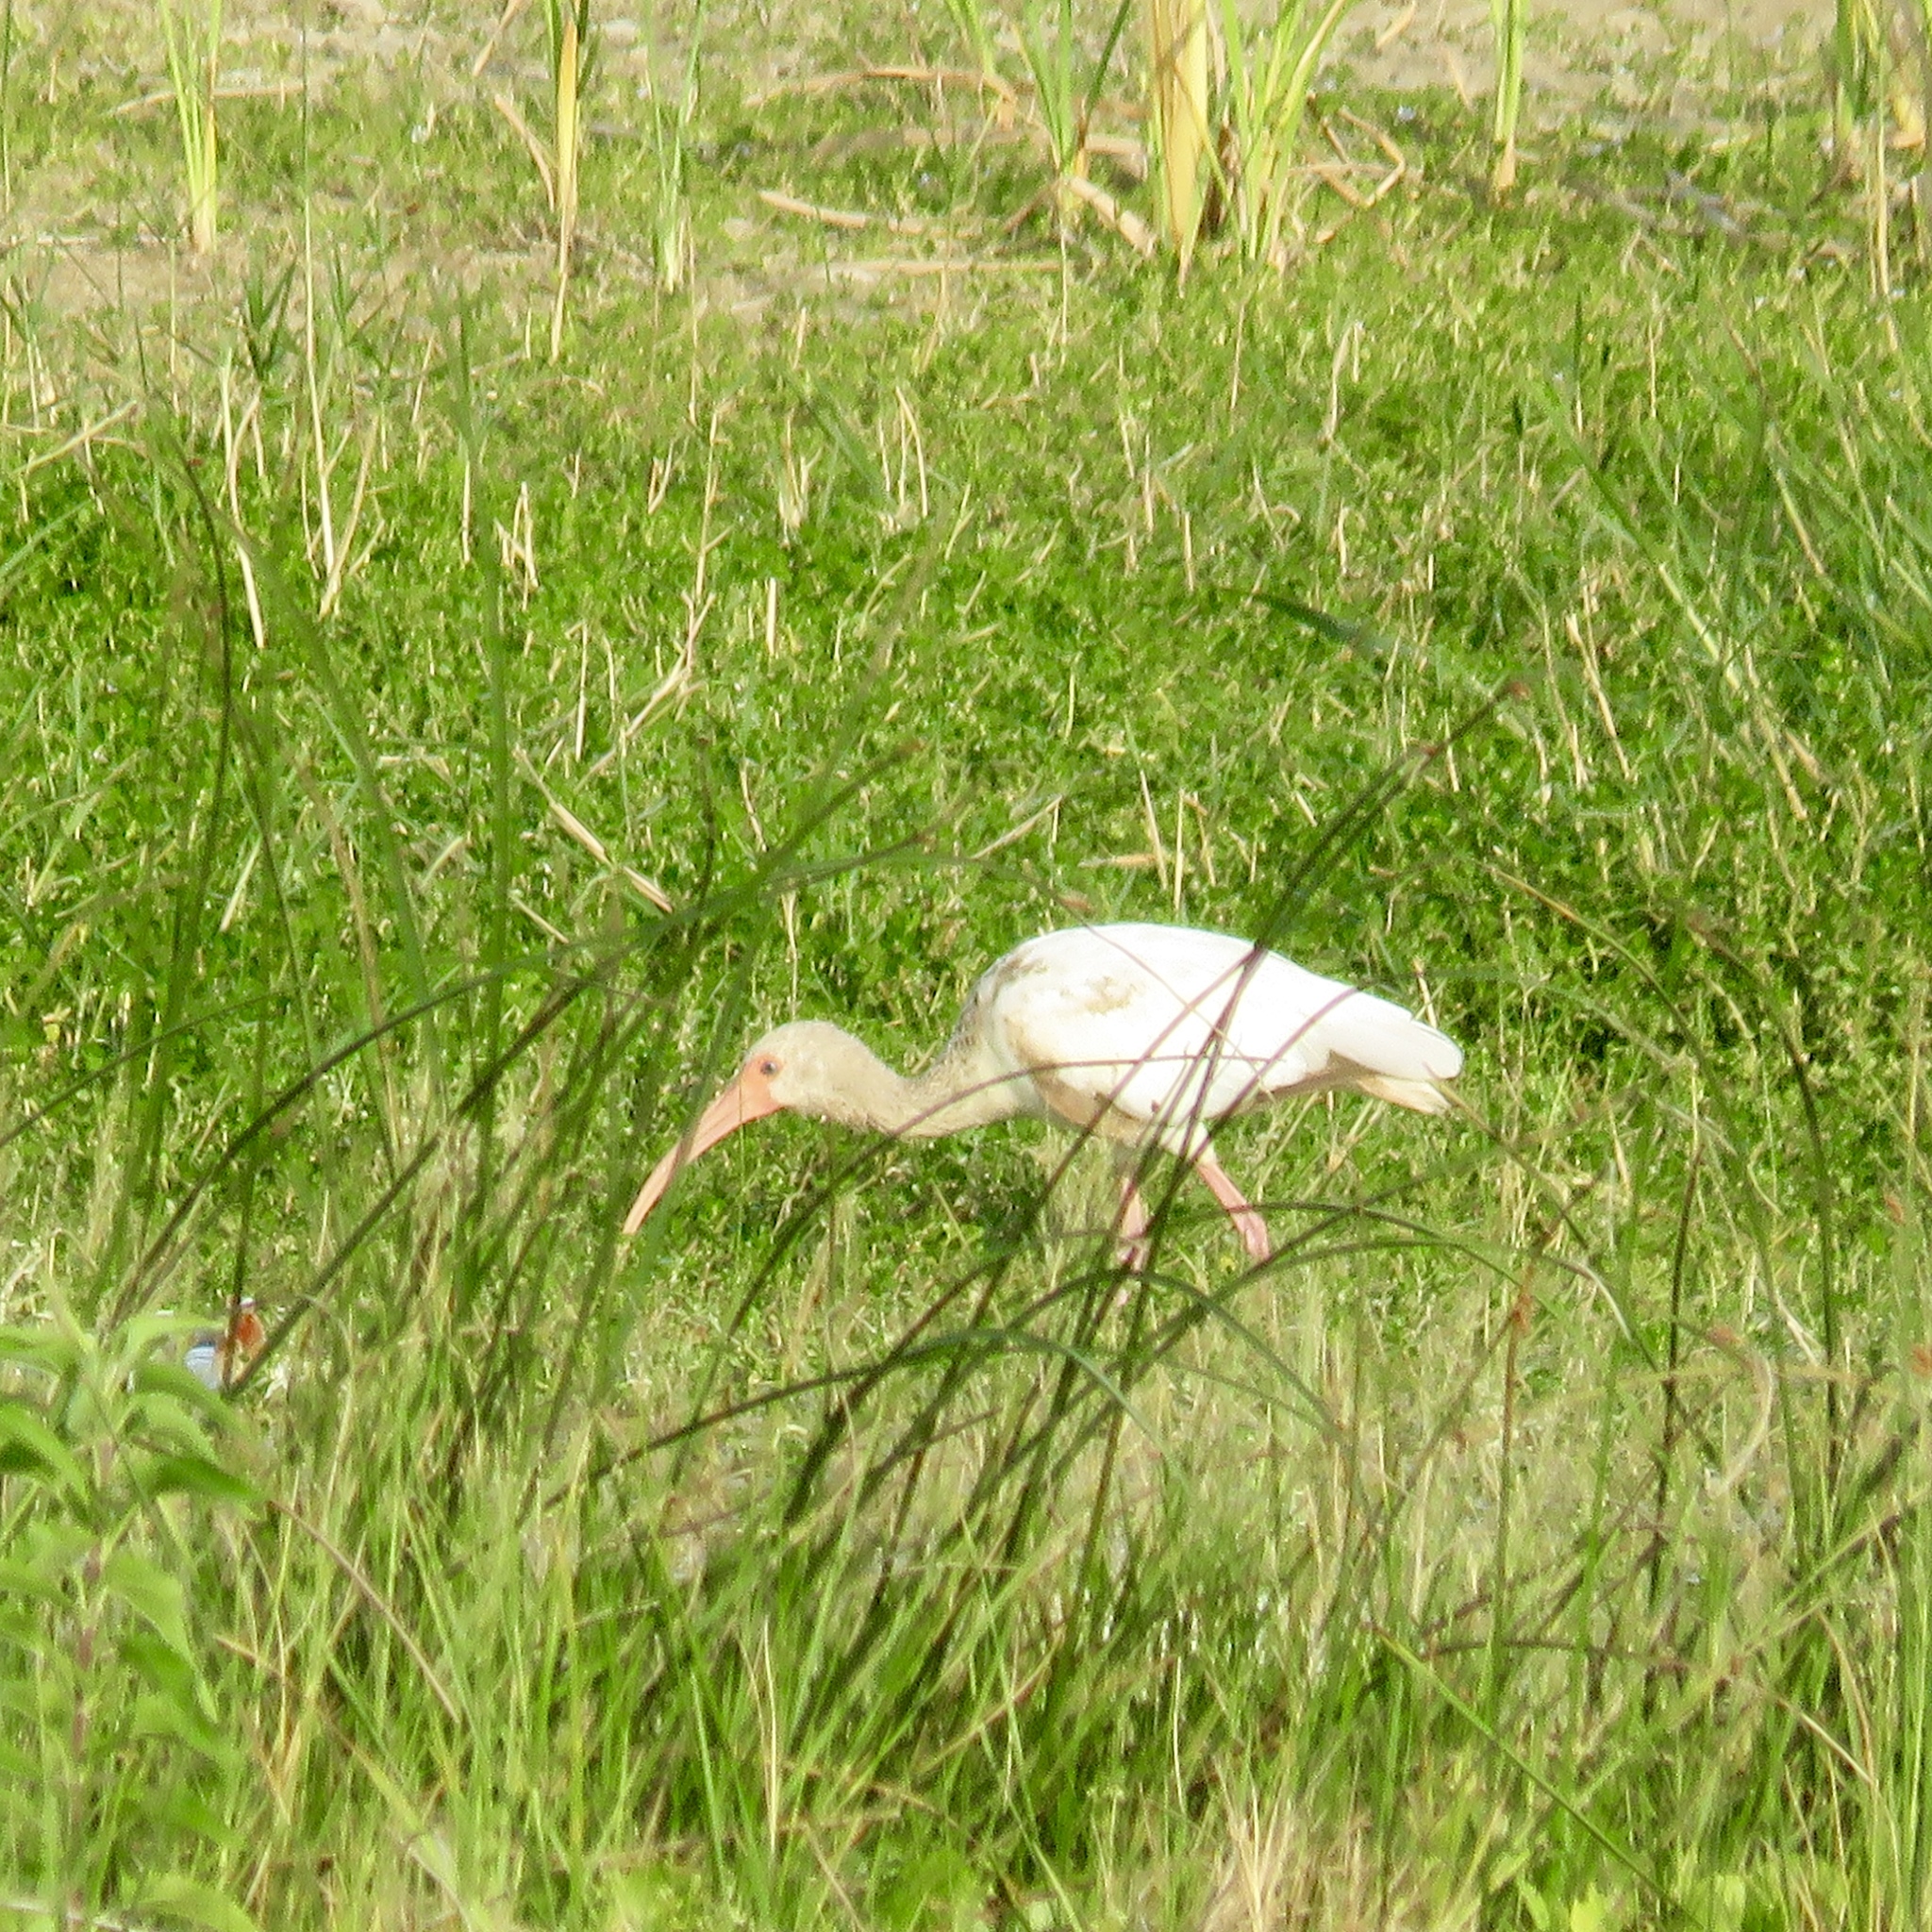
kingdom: Animalia
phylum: Chordata
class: Aves
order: Pelecaniformes
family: Threskiornithidae
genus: Eudocimus
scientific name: Eudocimus albus
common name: White ibis
